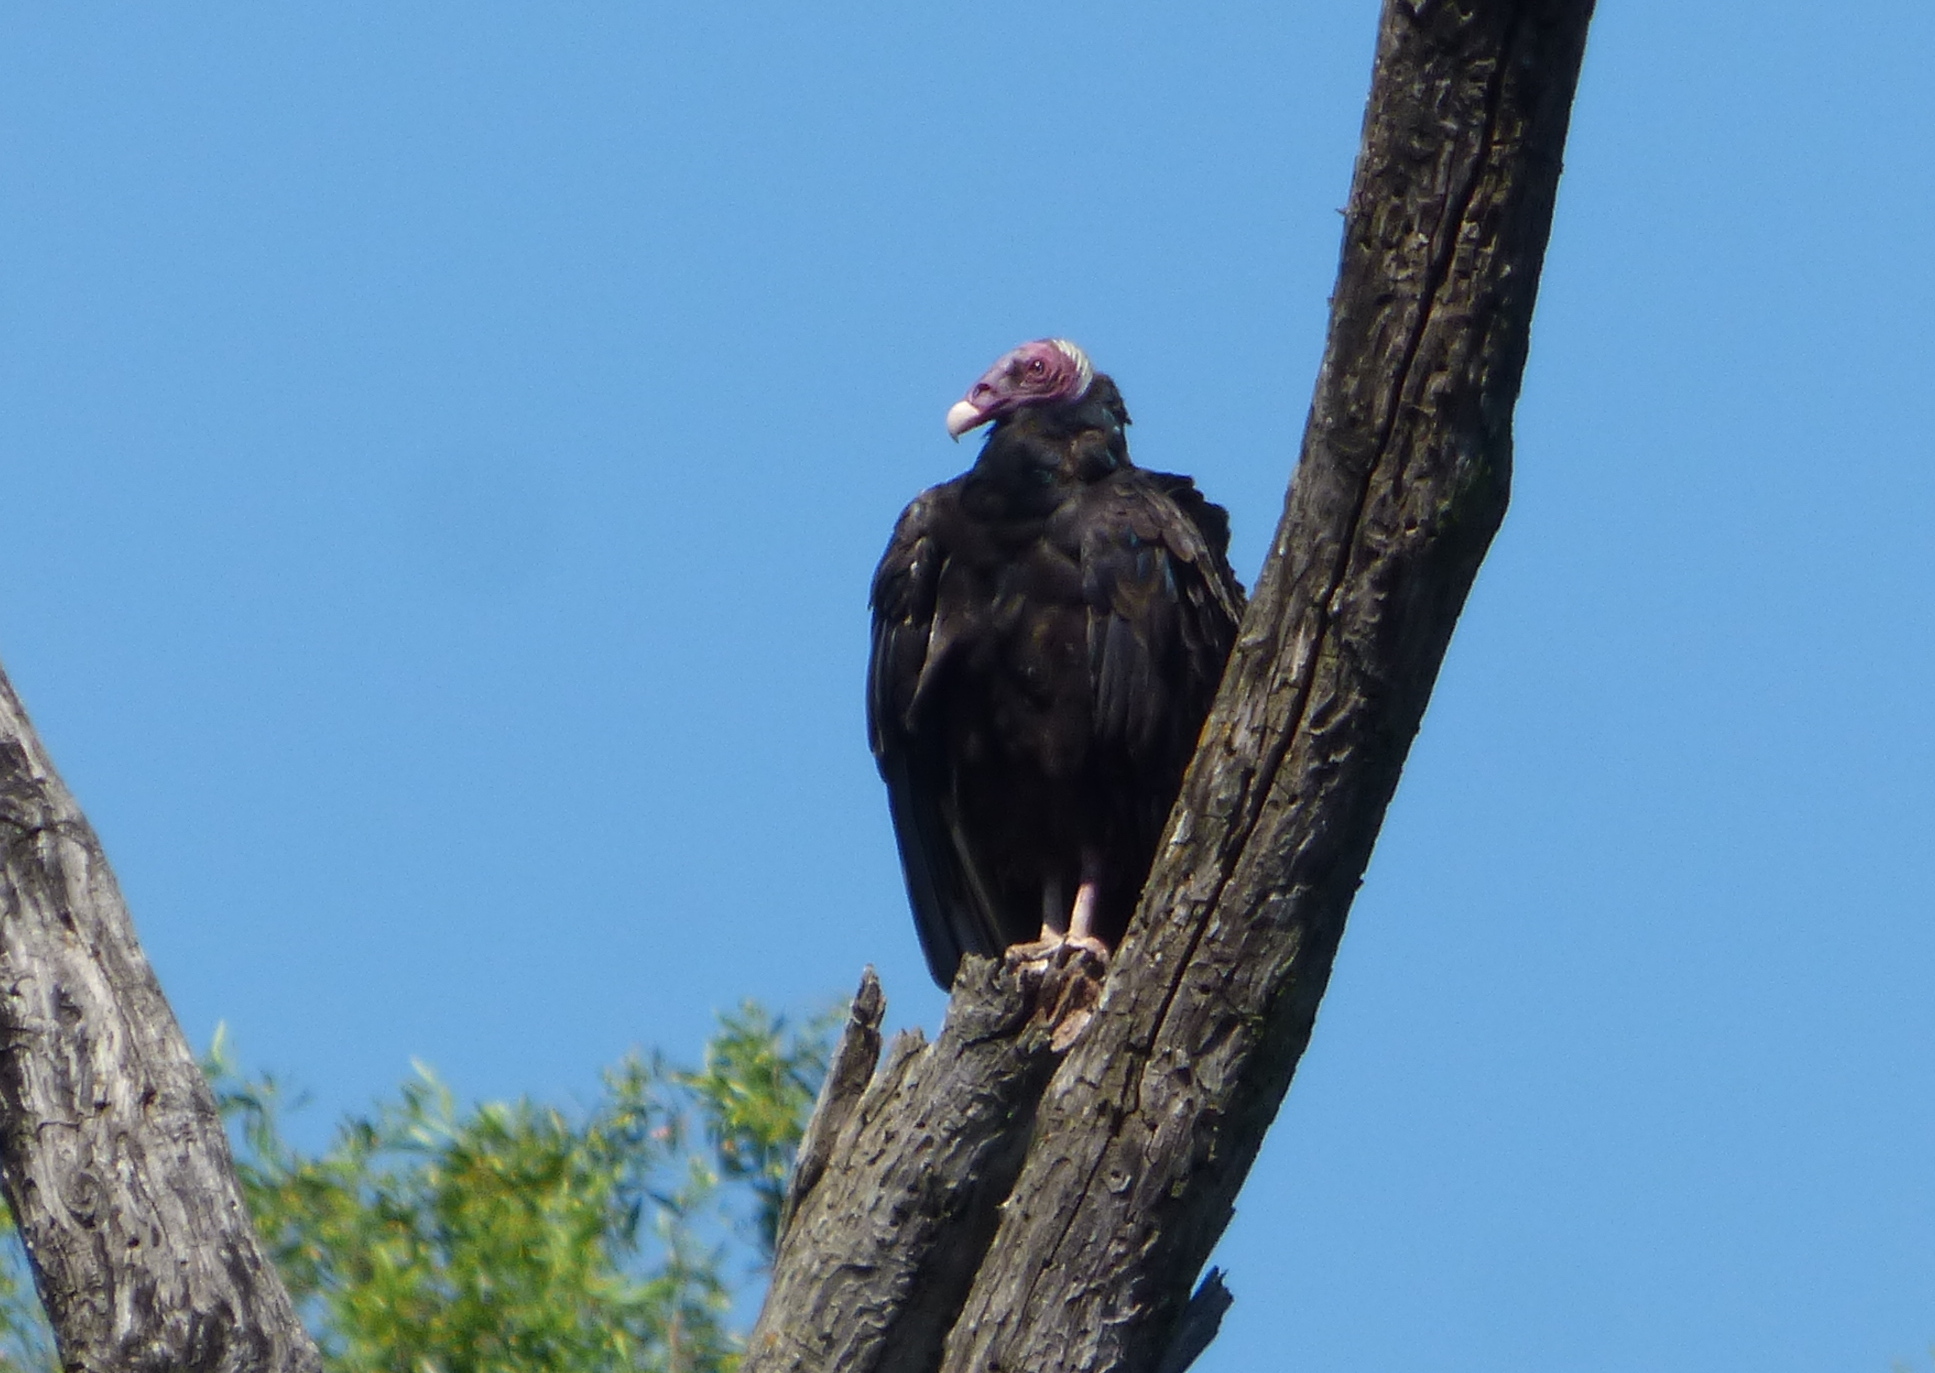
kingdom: Animalia
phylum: Chordata
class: Aves
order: Accipitriformes
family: Cathartidae
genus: Cathartes
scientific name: Cathartes aura
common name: Turkey vulture
